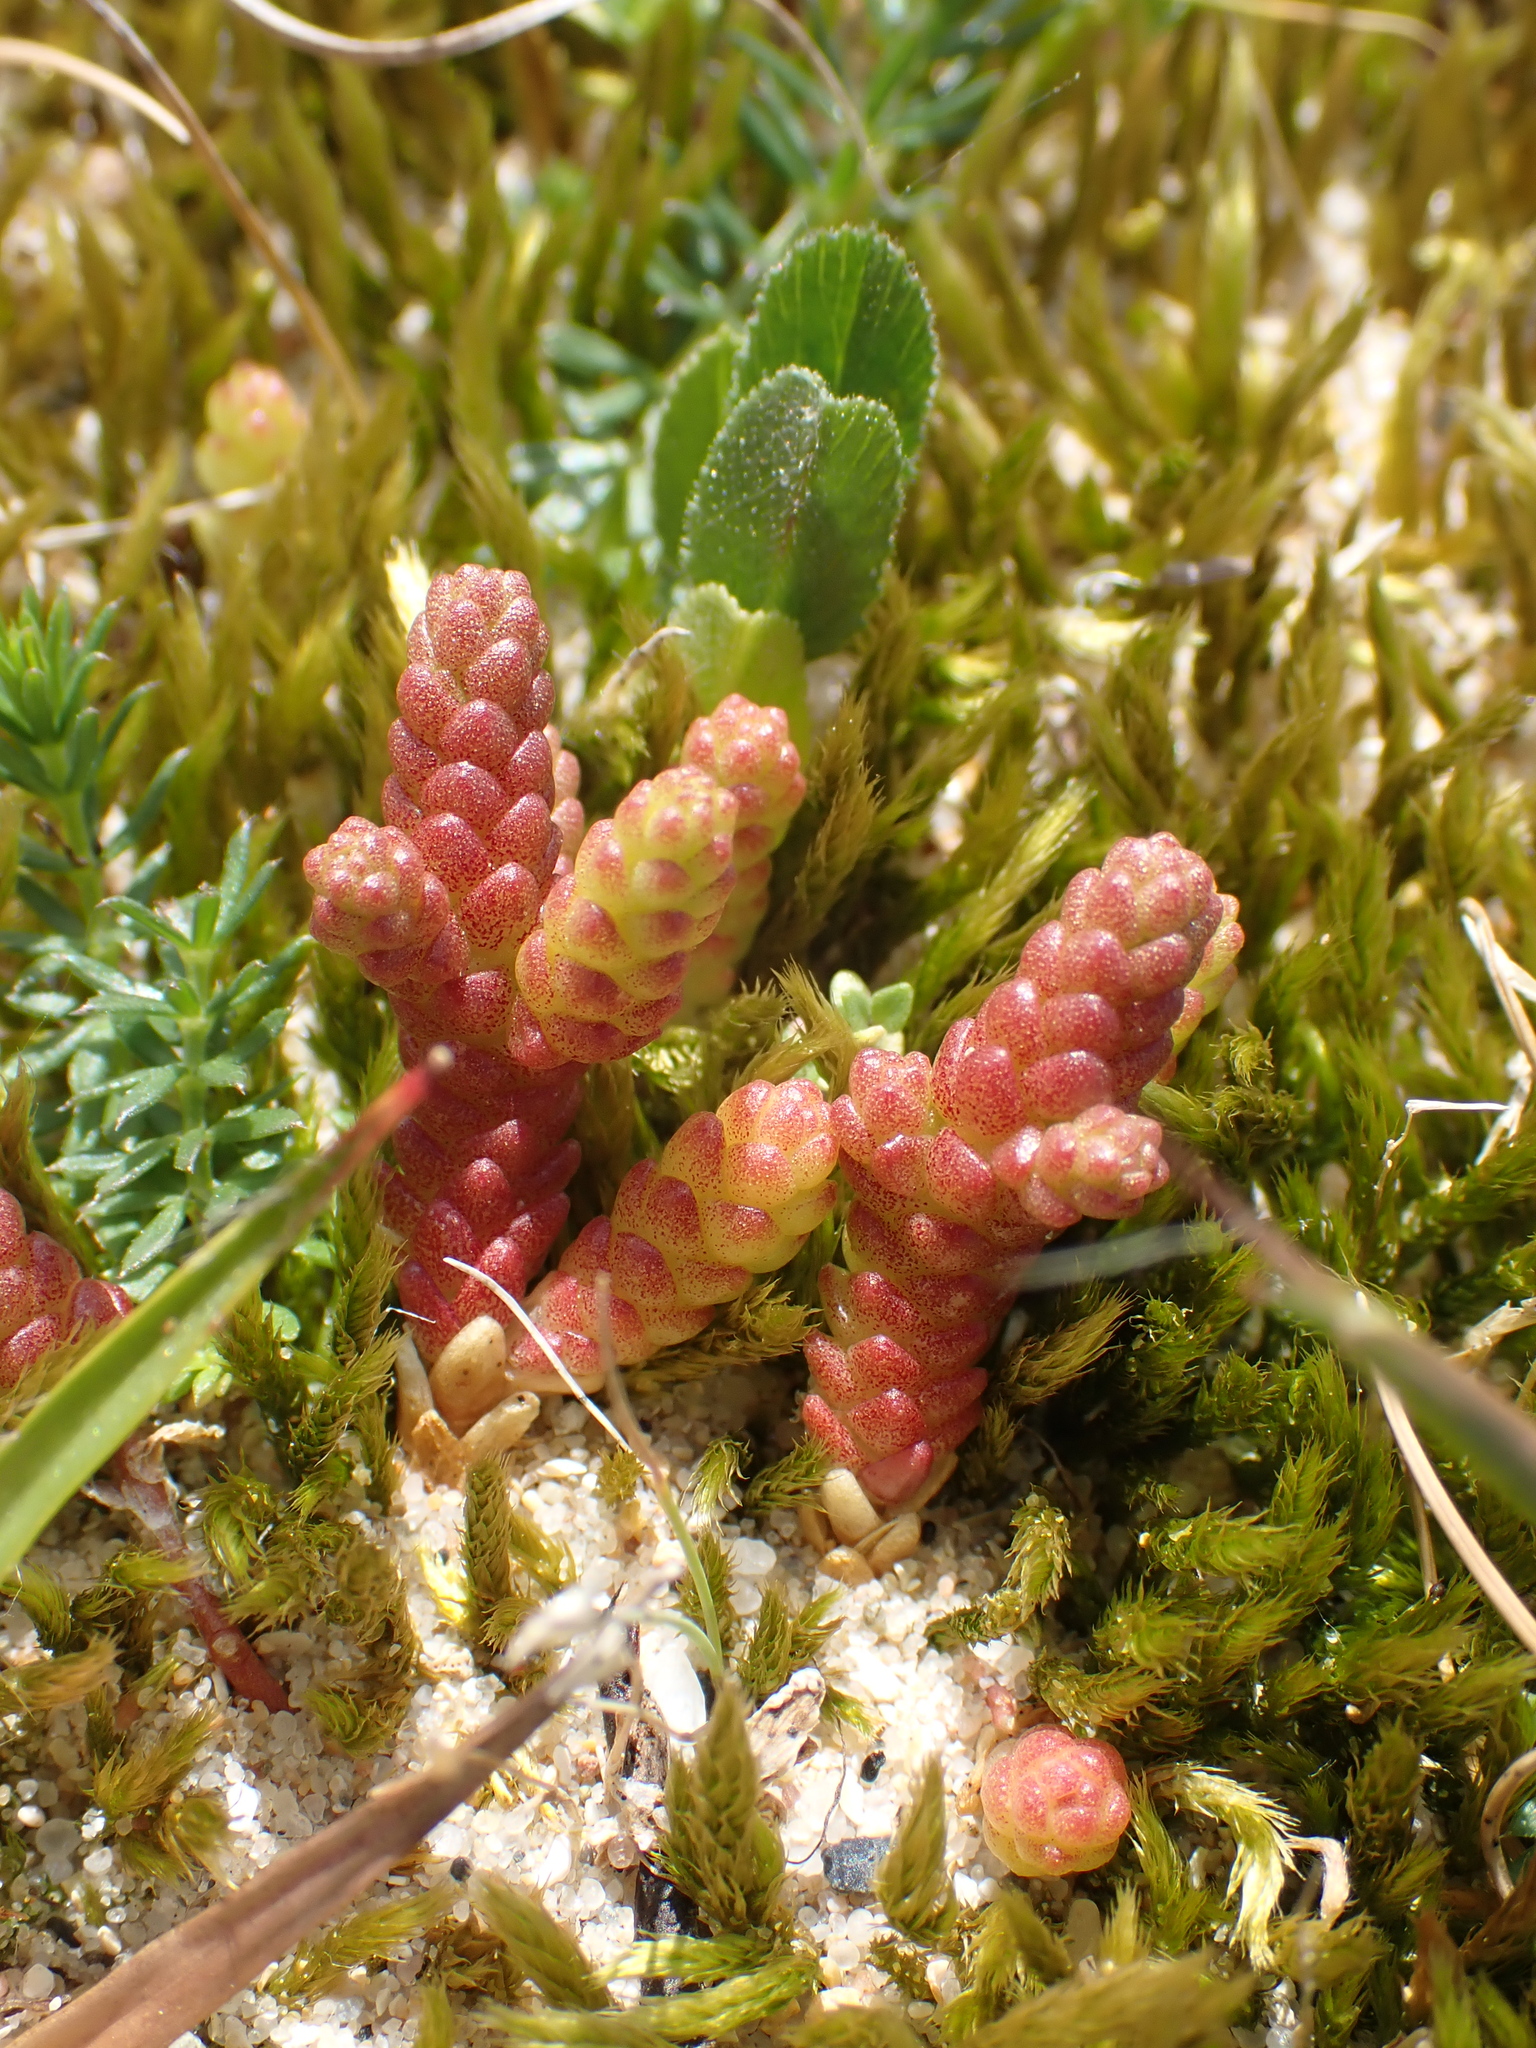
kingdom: Plantae
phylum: Tracheophyta
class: Magnoliopsida
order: Saxifragales
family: Crassulaceae
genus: Sedum
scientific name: Sedum acre
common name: Biting stonecrop
